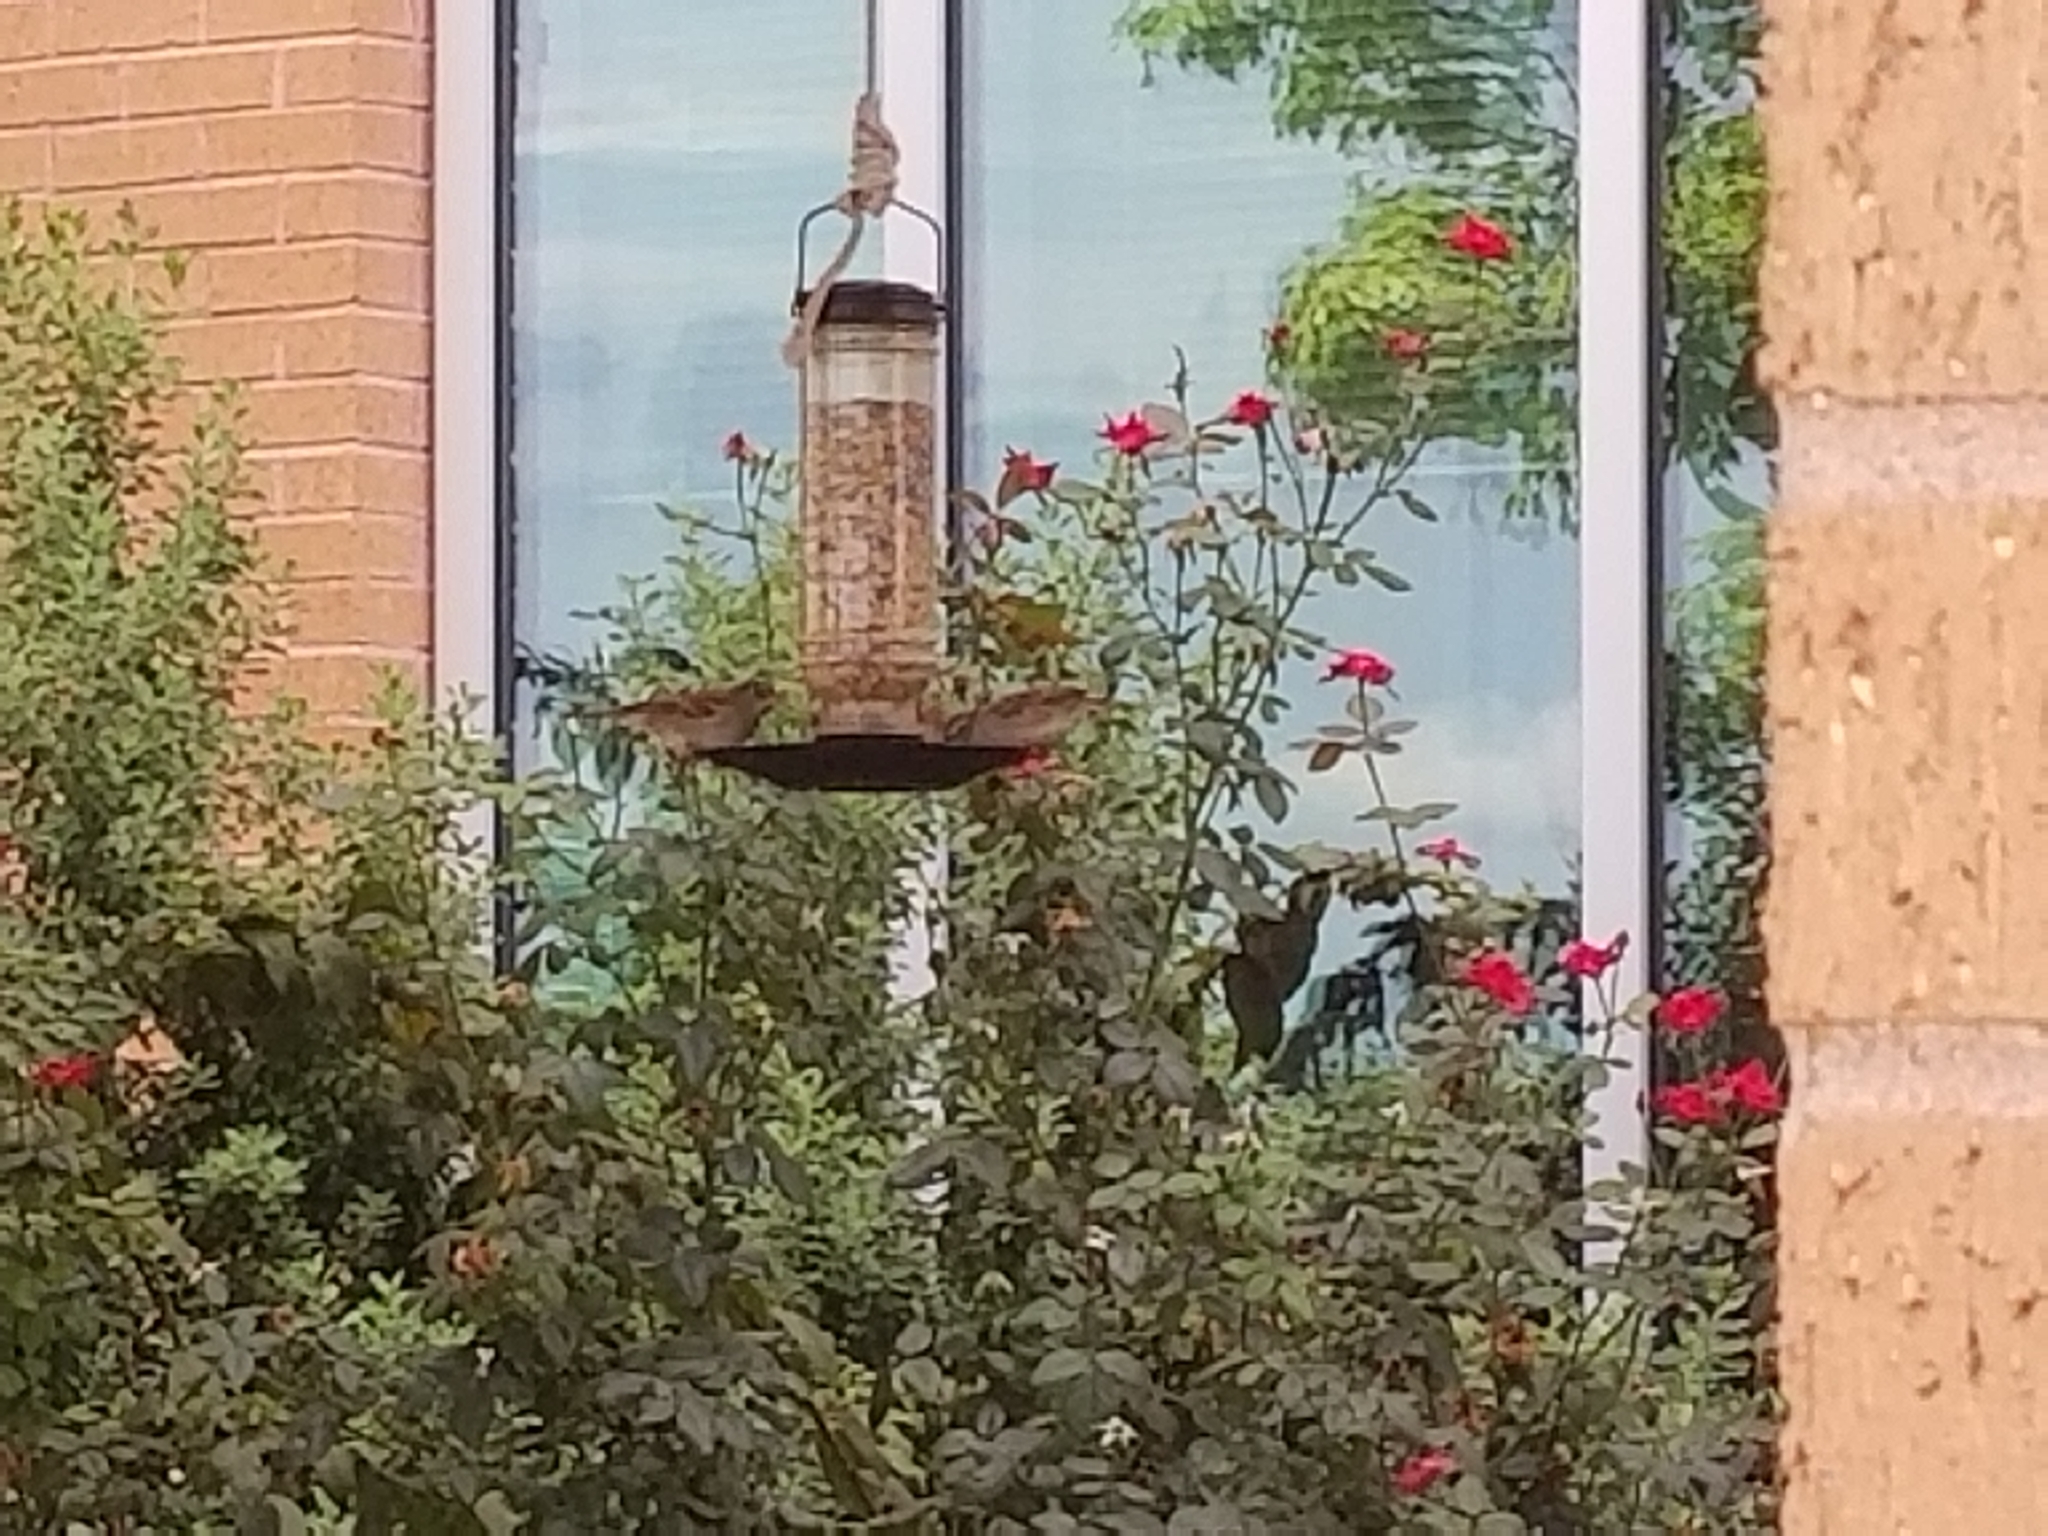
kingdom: Animalia
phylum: Chordata
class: Aves
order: Passeriformes
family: Passeridae
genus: Passer
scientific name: Passer domesticus
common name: House sparrow
